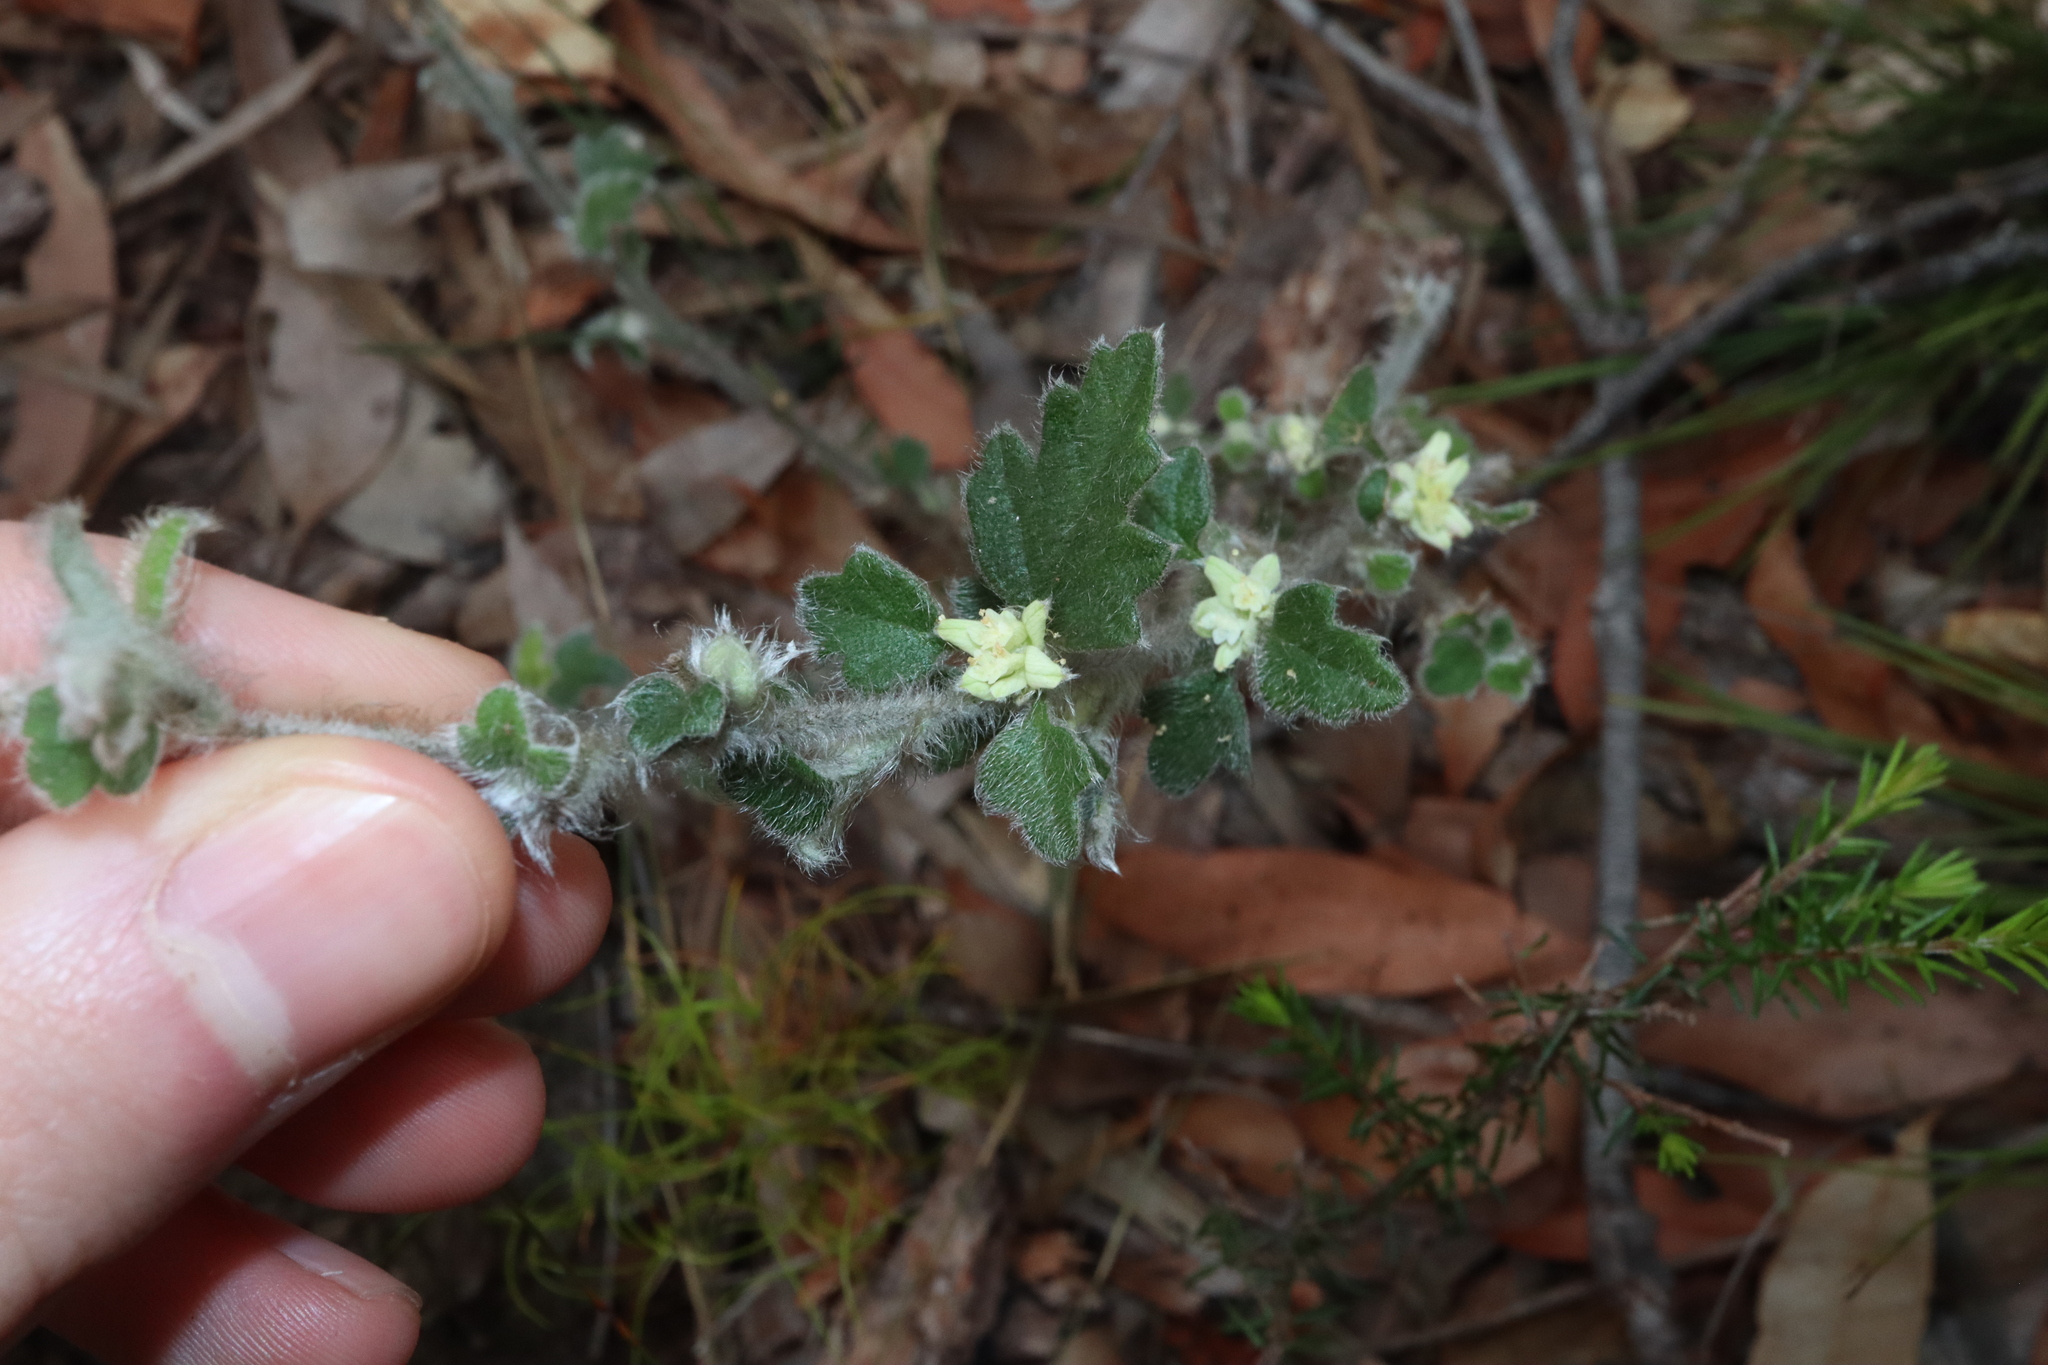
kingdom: Plantae
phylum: Tracheophyta
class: Magnoliopsida
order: Apiales
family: Apiaceae
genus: Xanthosia
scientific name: Xanthosia pilosa
